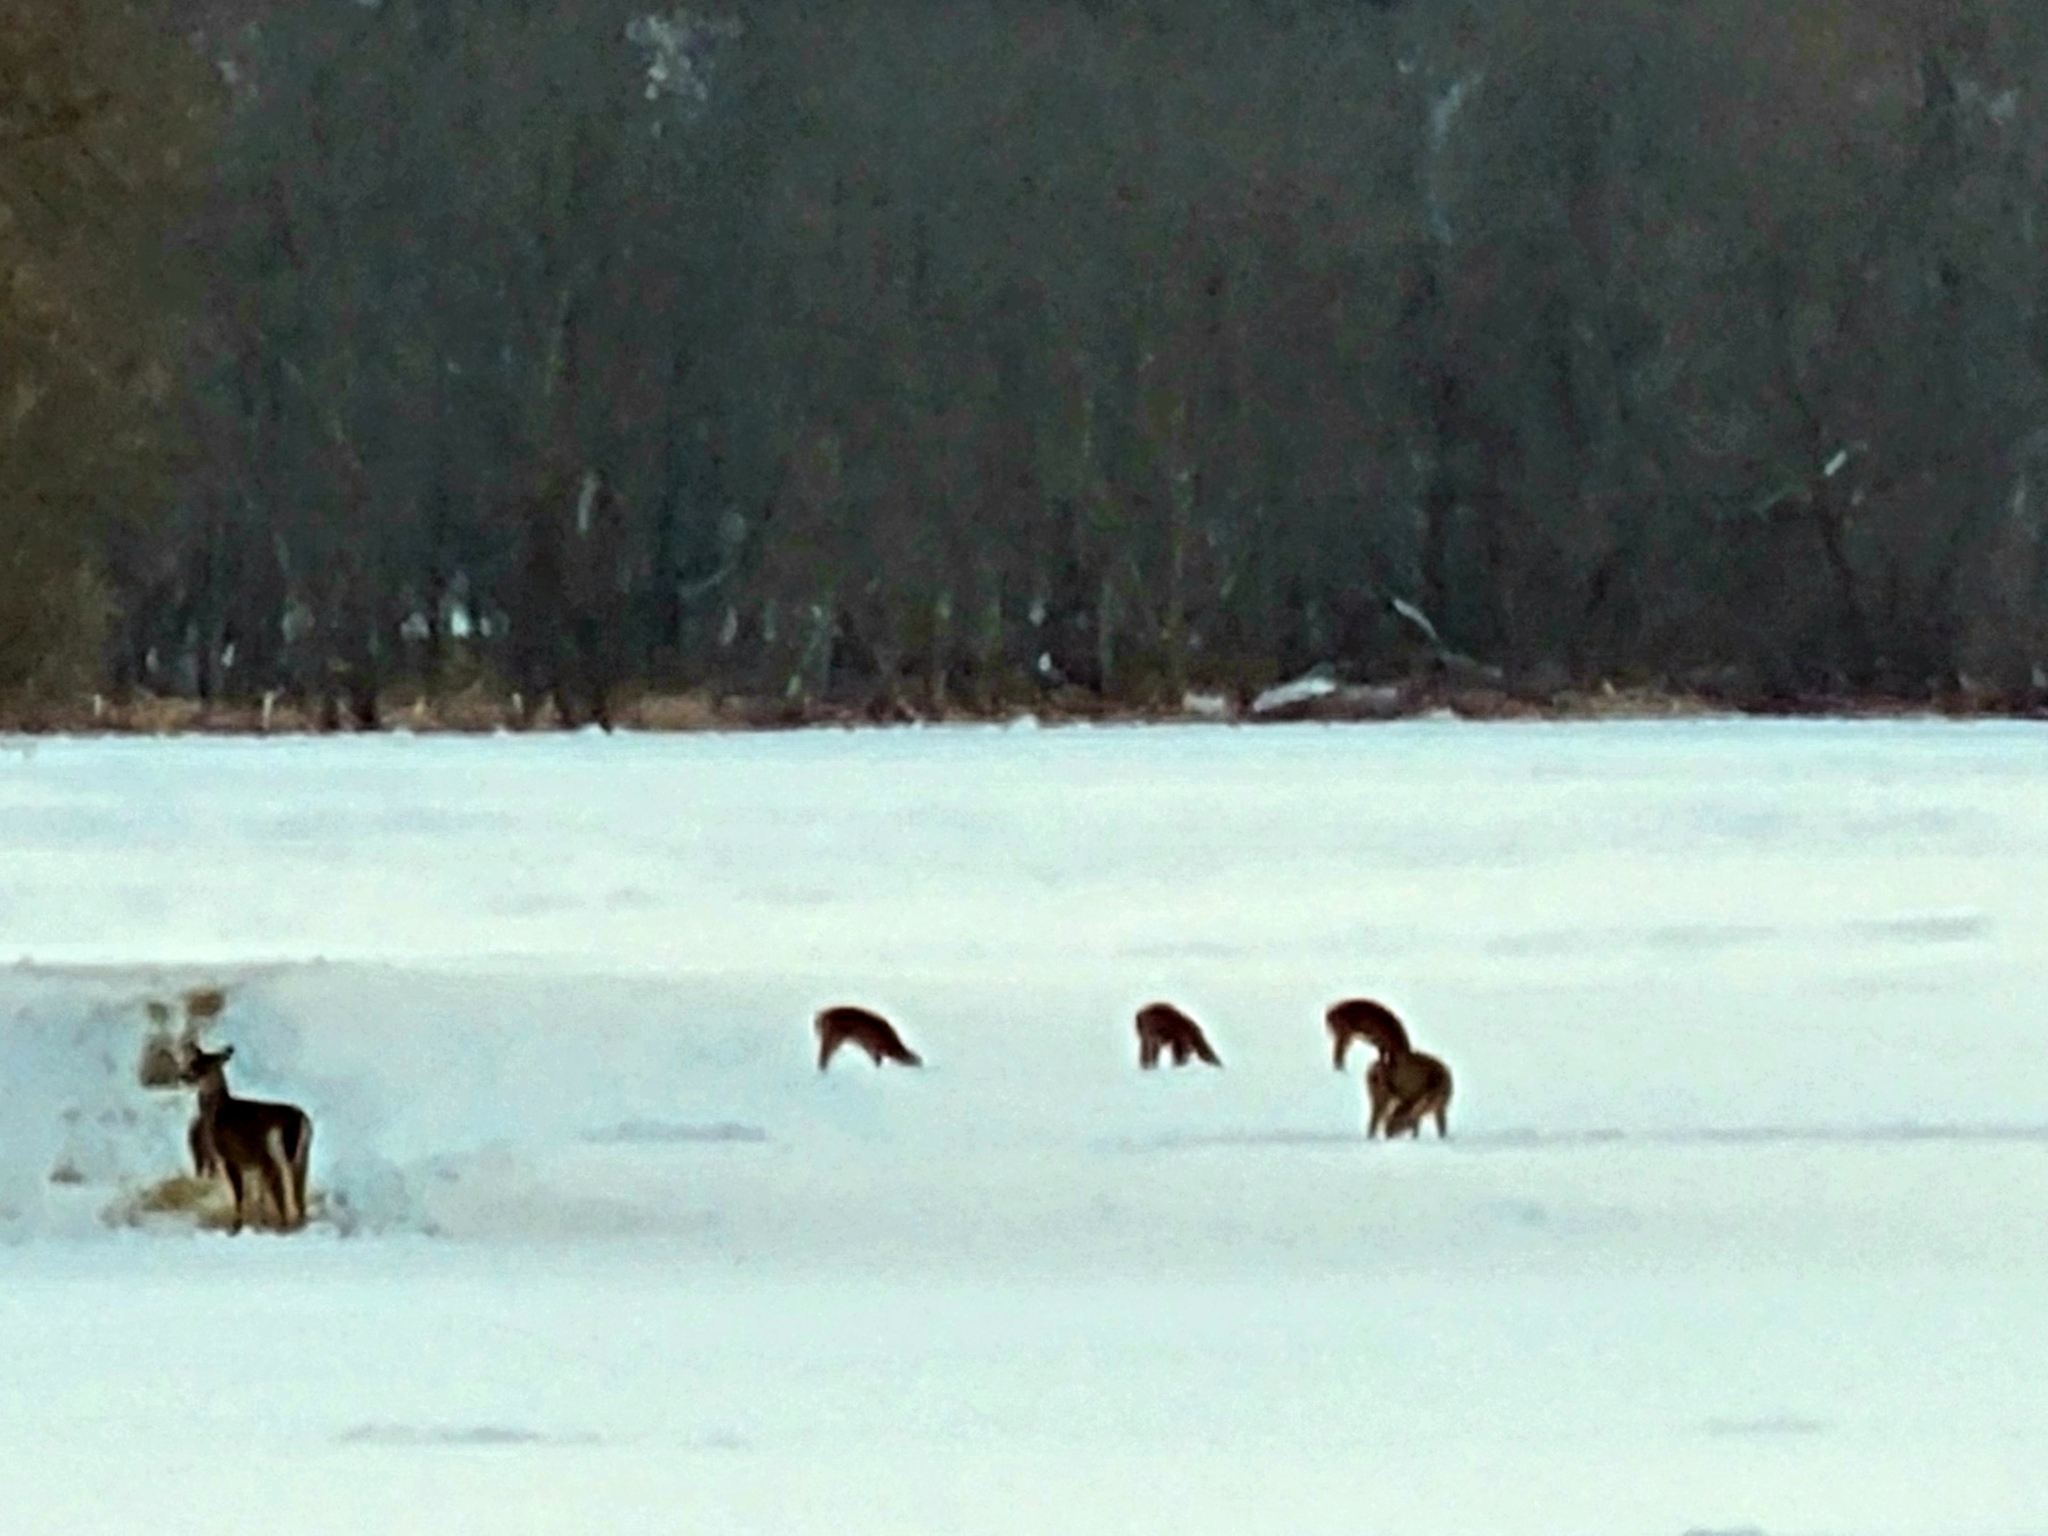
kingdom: Animalia
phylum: Chordata
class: Mammalia
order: Artiodactyla
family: Cervidae
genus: Odocoileus
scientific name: Odocoileus virginianus
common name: White-tailed deer
